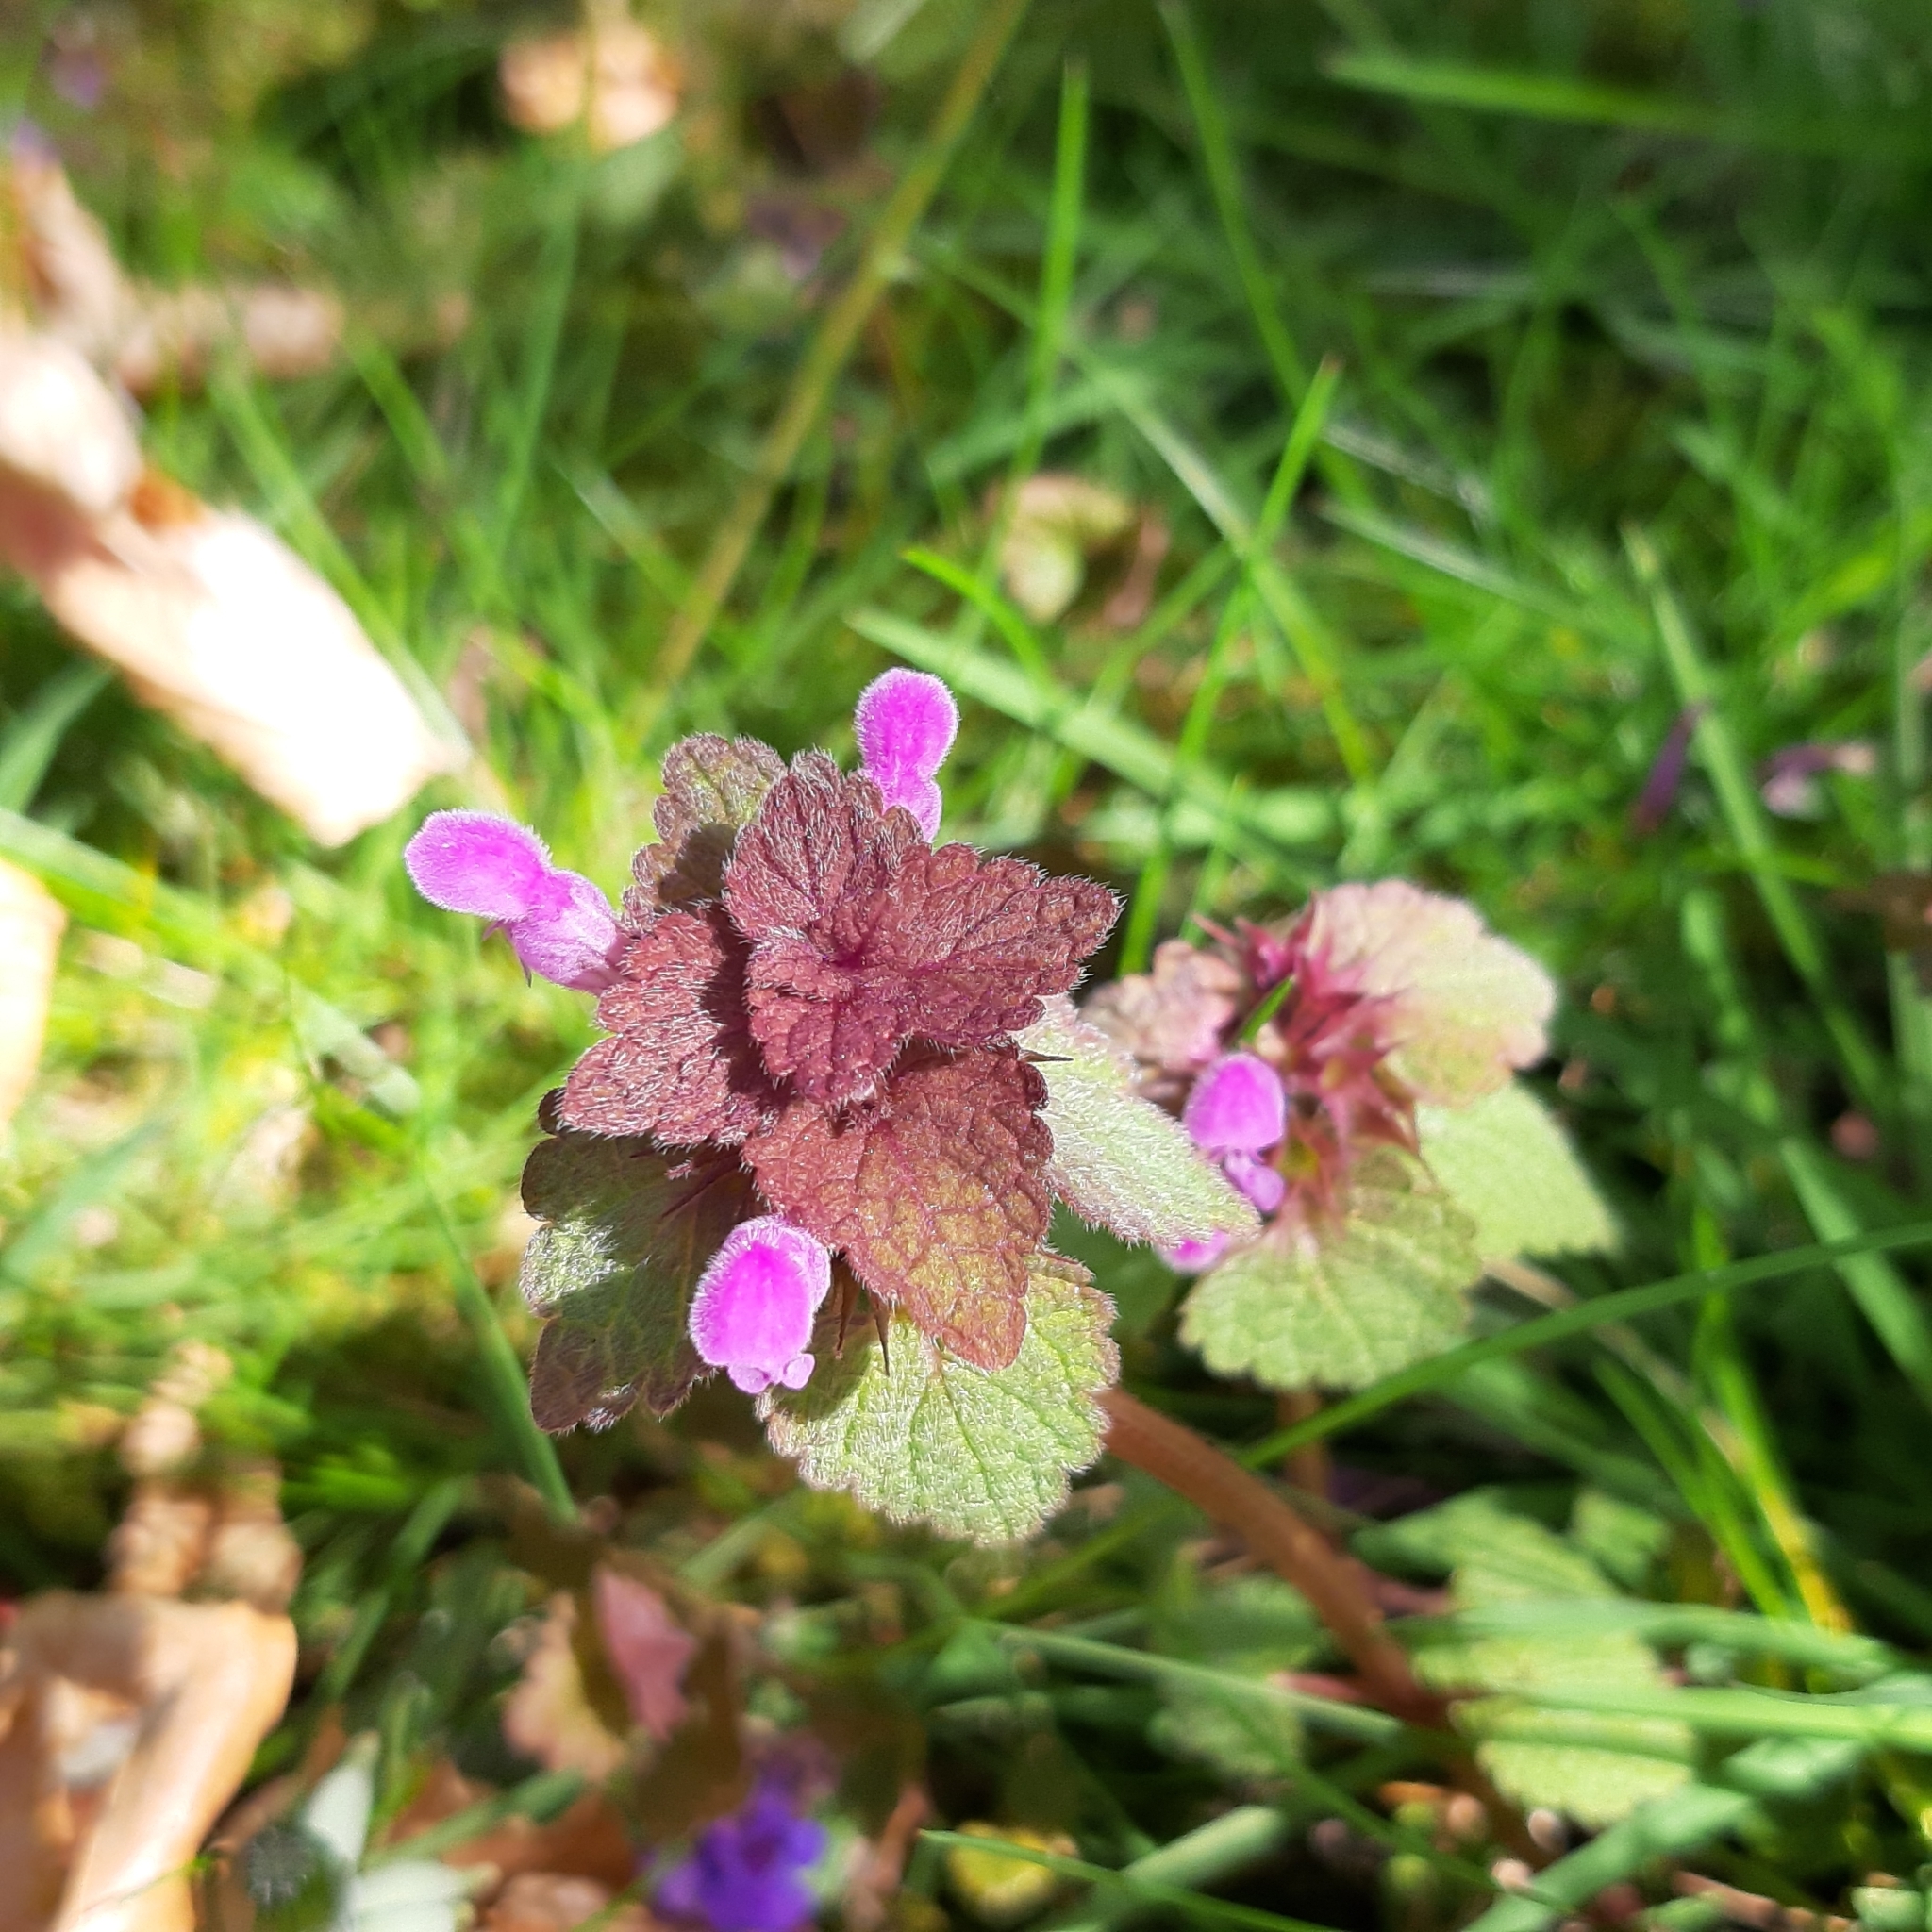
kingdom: Plantae
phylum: Tracheophyta
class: Magnoliopsida
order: Lamiales
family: Lamiaceae
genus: Lamium
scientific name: Lamium purpureum
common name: Red dead-nettle
